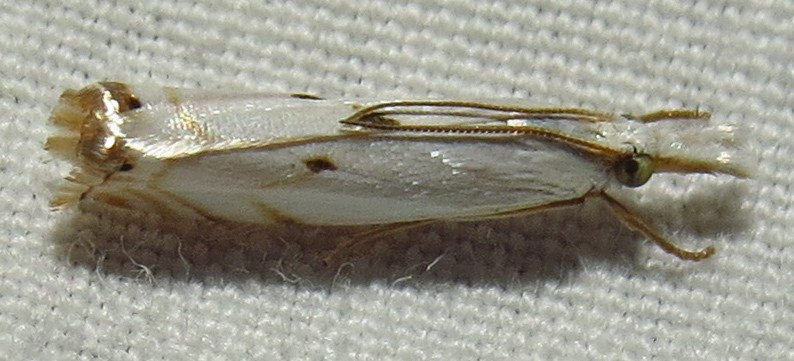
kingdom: Animalia
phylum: Arthropoda
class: Insecta
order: Lepidoptera
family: Crambidae
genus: Microcrambus
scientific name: Microcrambus biguttellus
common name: Gold-stripe grass-veneer moth
